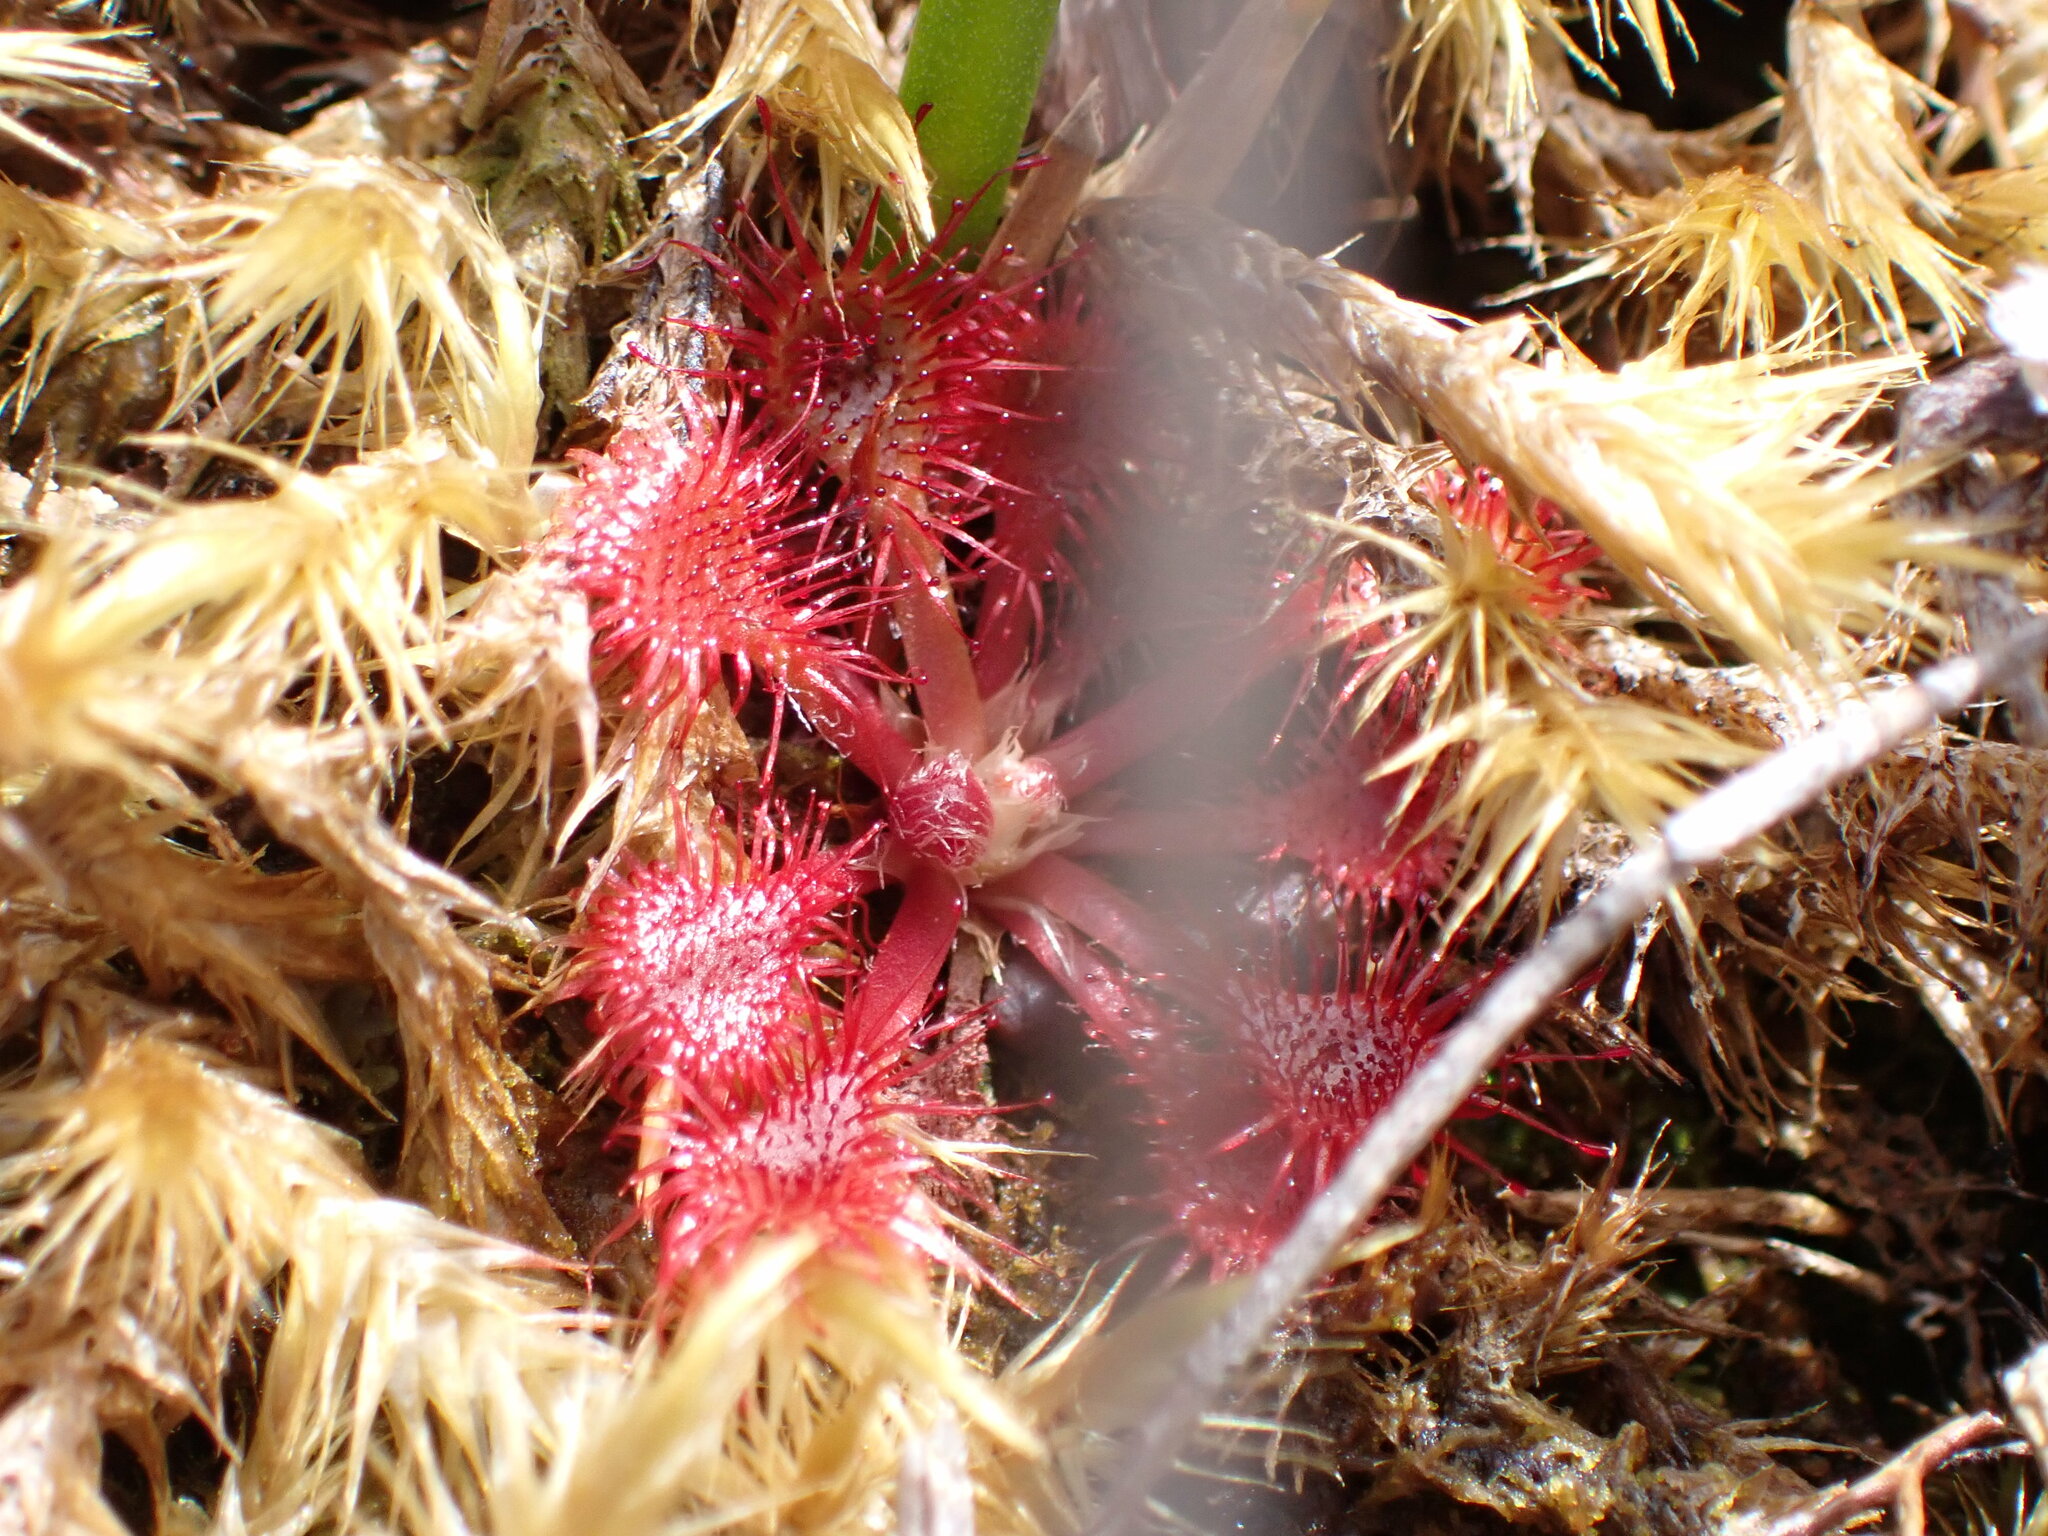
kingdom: Plantae
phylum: Tracheophyta
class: Magnoliopsida
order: Caryophyllales
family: Droseraceae
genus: Drosera
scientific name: Drosera spatulata
